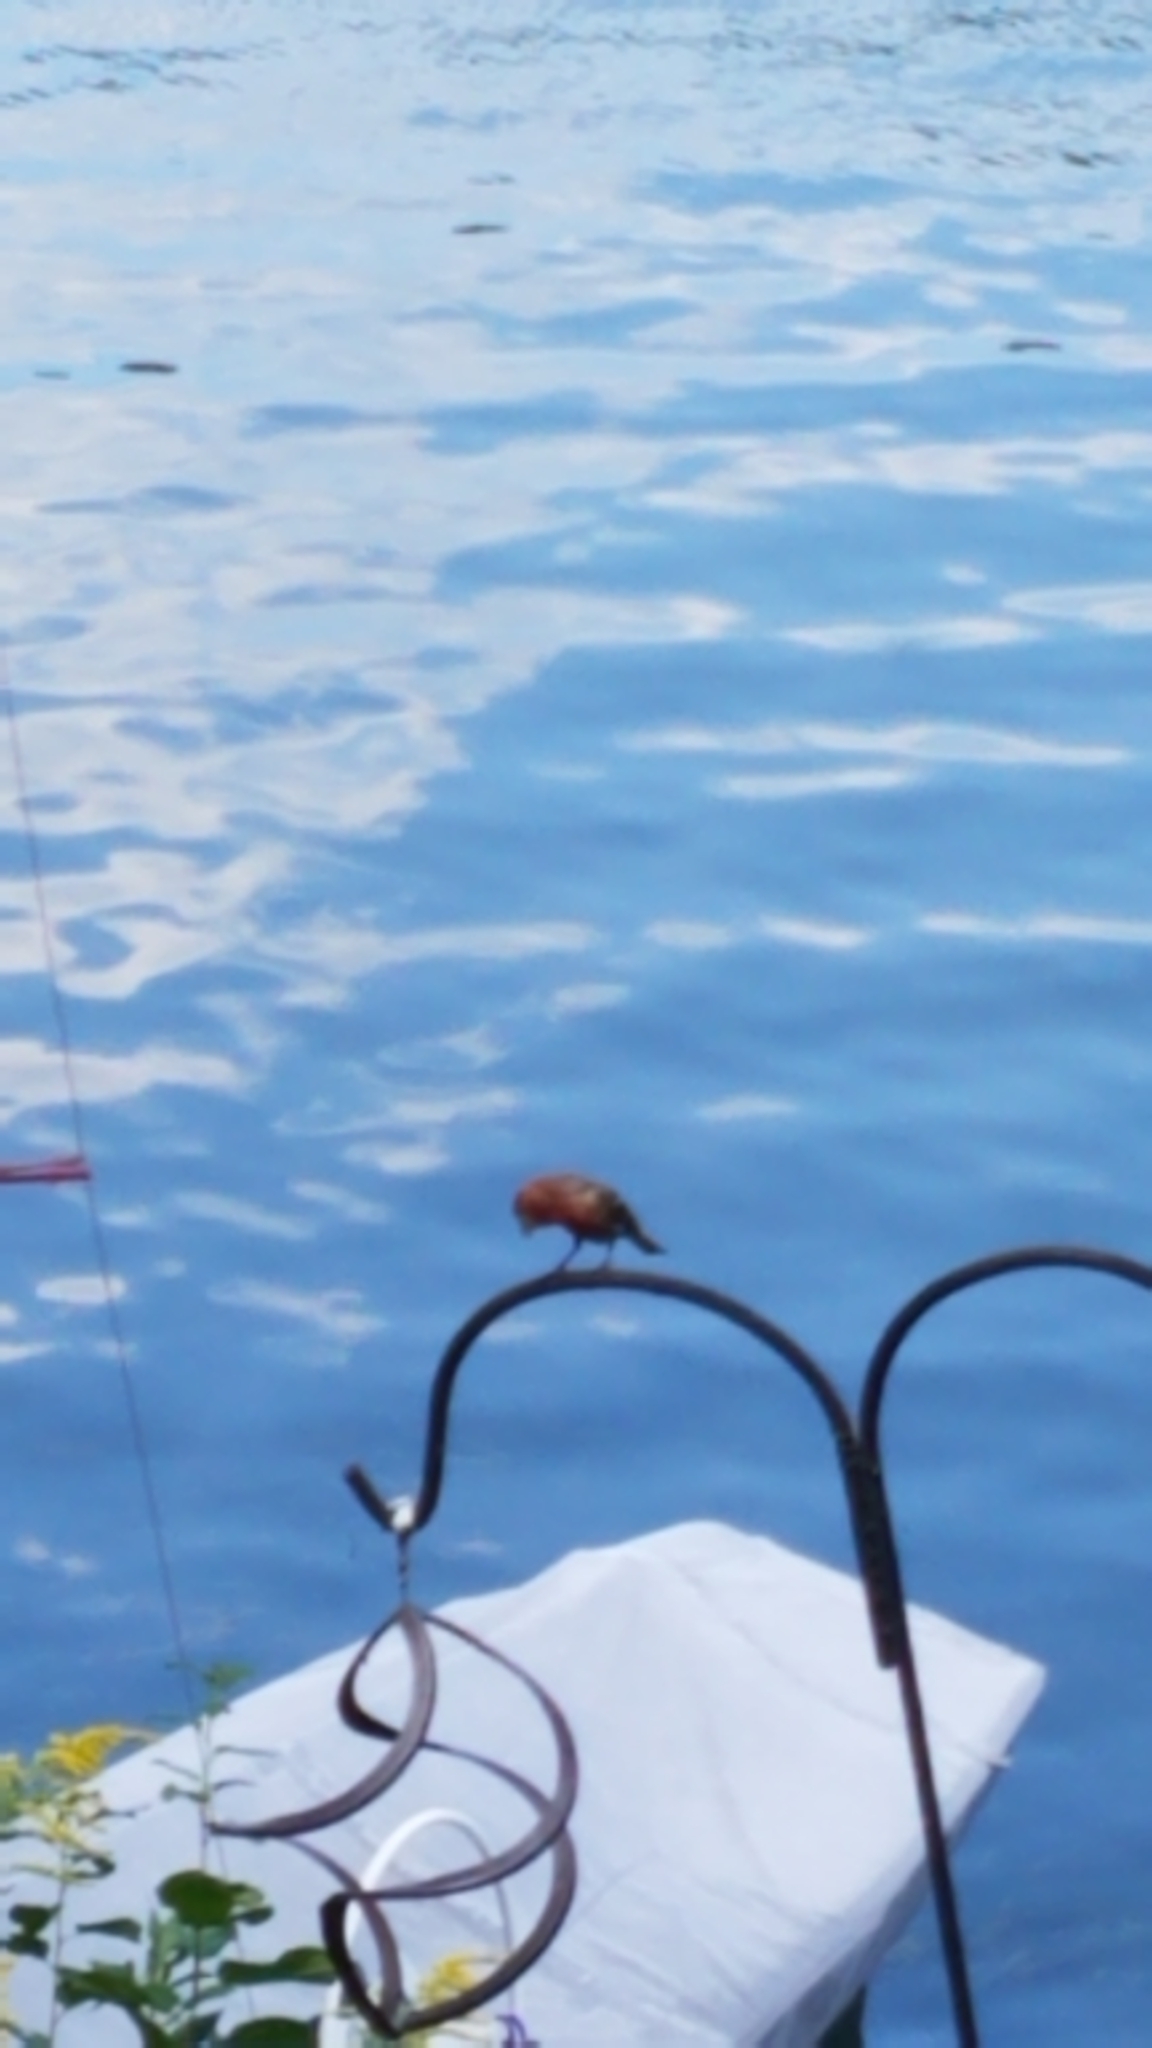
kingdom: Animalia
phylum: Chordata
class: Aves
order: Passeriformes
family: Fringillidae
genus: Haemorhous
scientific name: Haemorhous mexicanus
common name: House finch
